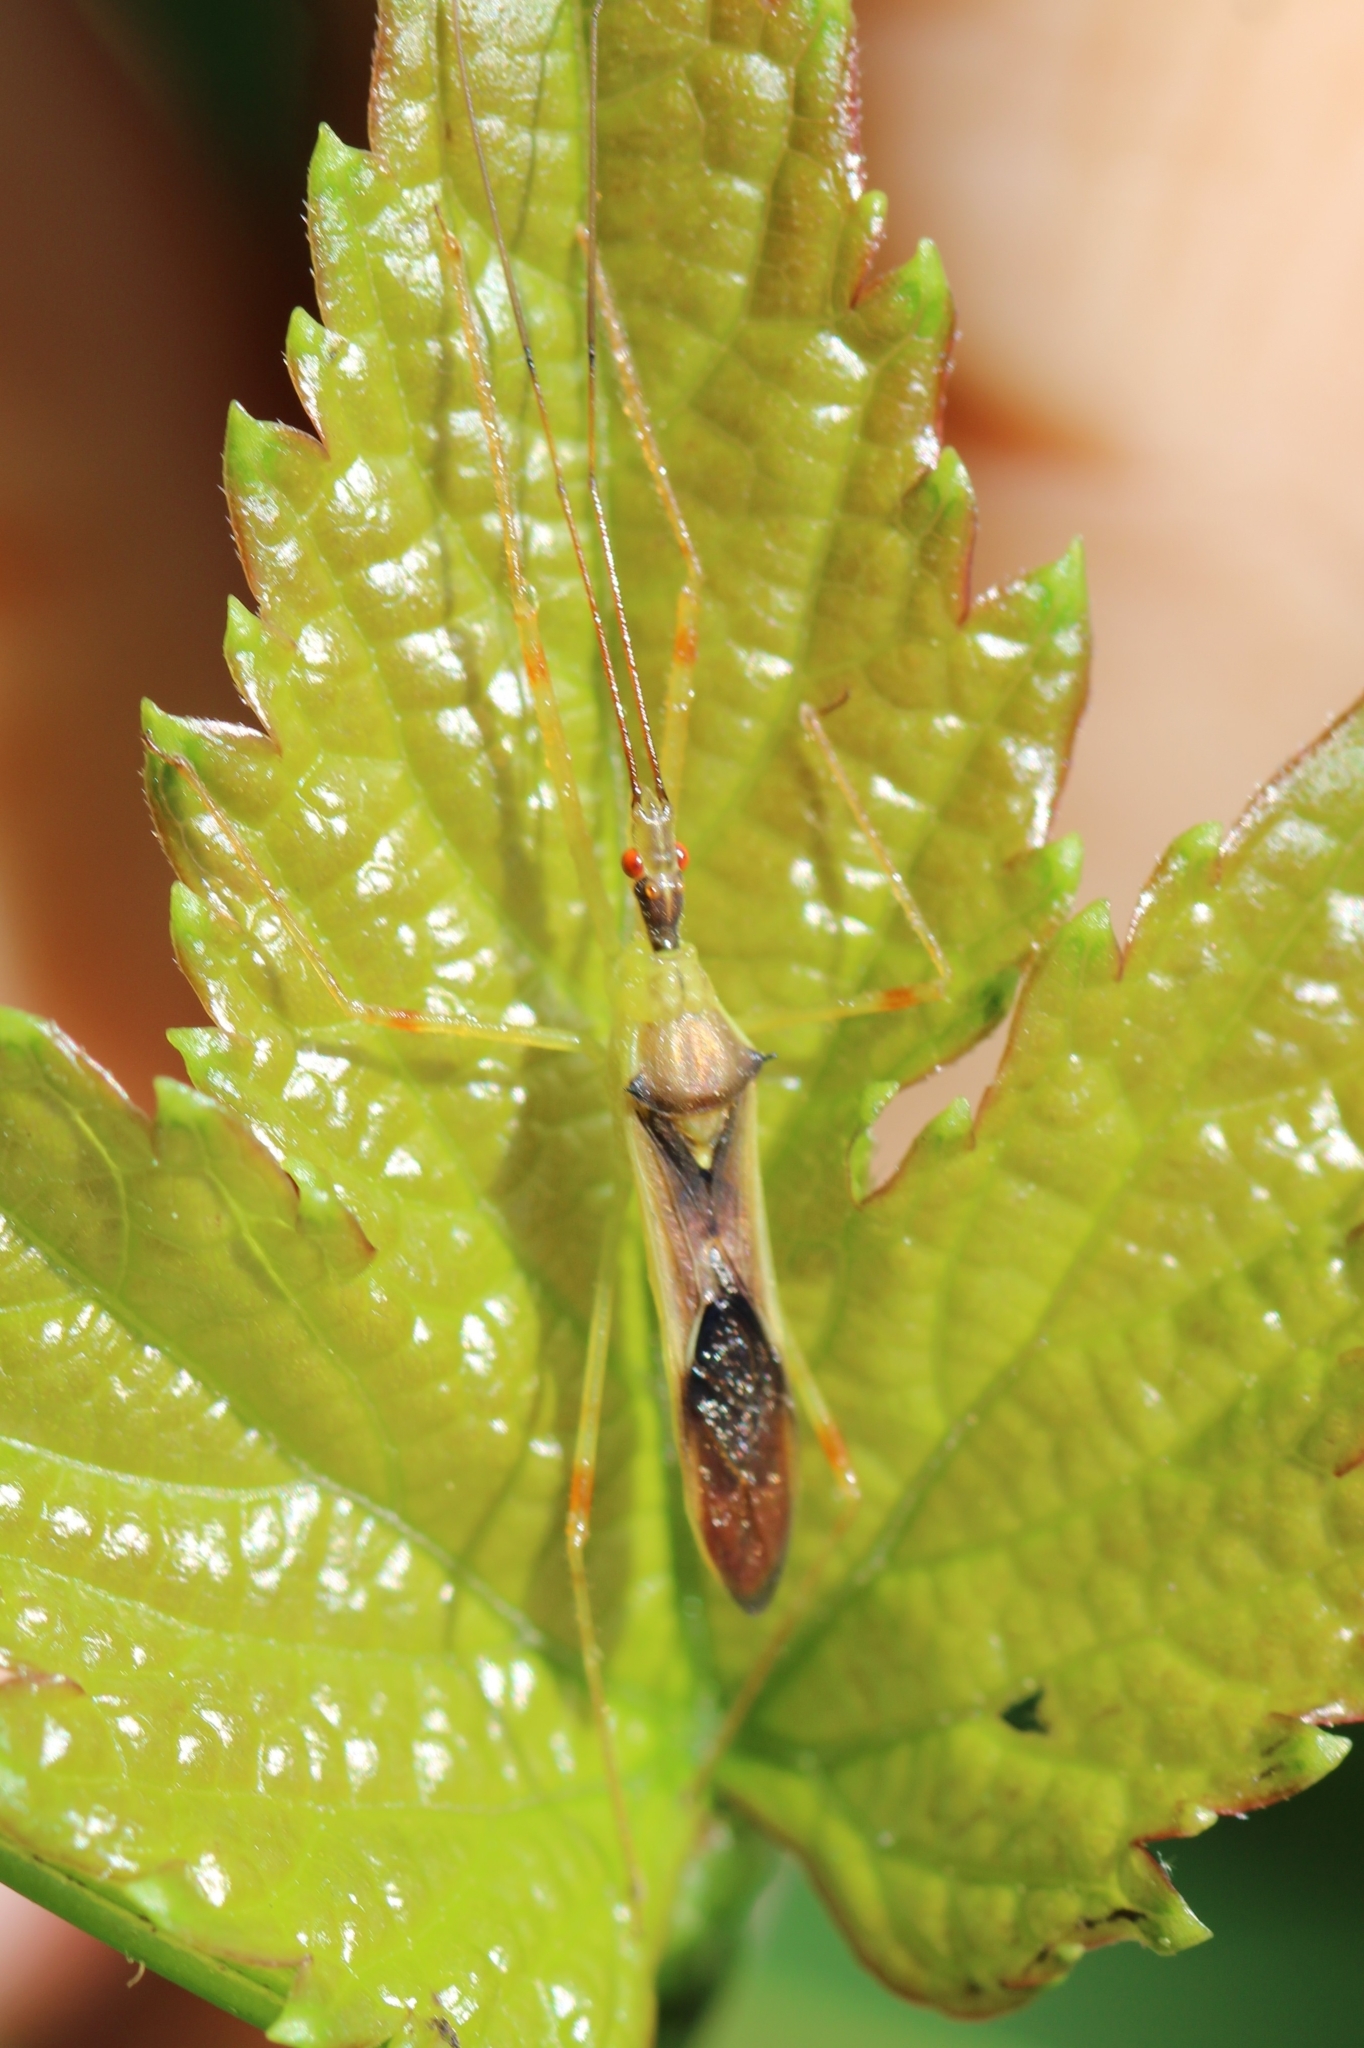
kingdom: Animalia
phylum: Arthropoda
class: Insecta
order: Hemiptera
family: Reduviidae
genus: Zelus
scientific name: Zelus luridus
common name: Pale green assassin bug
